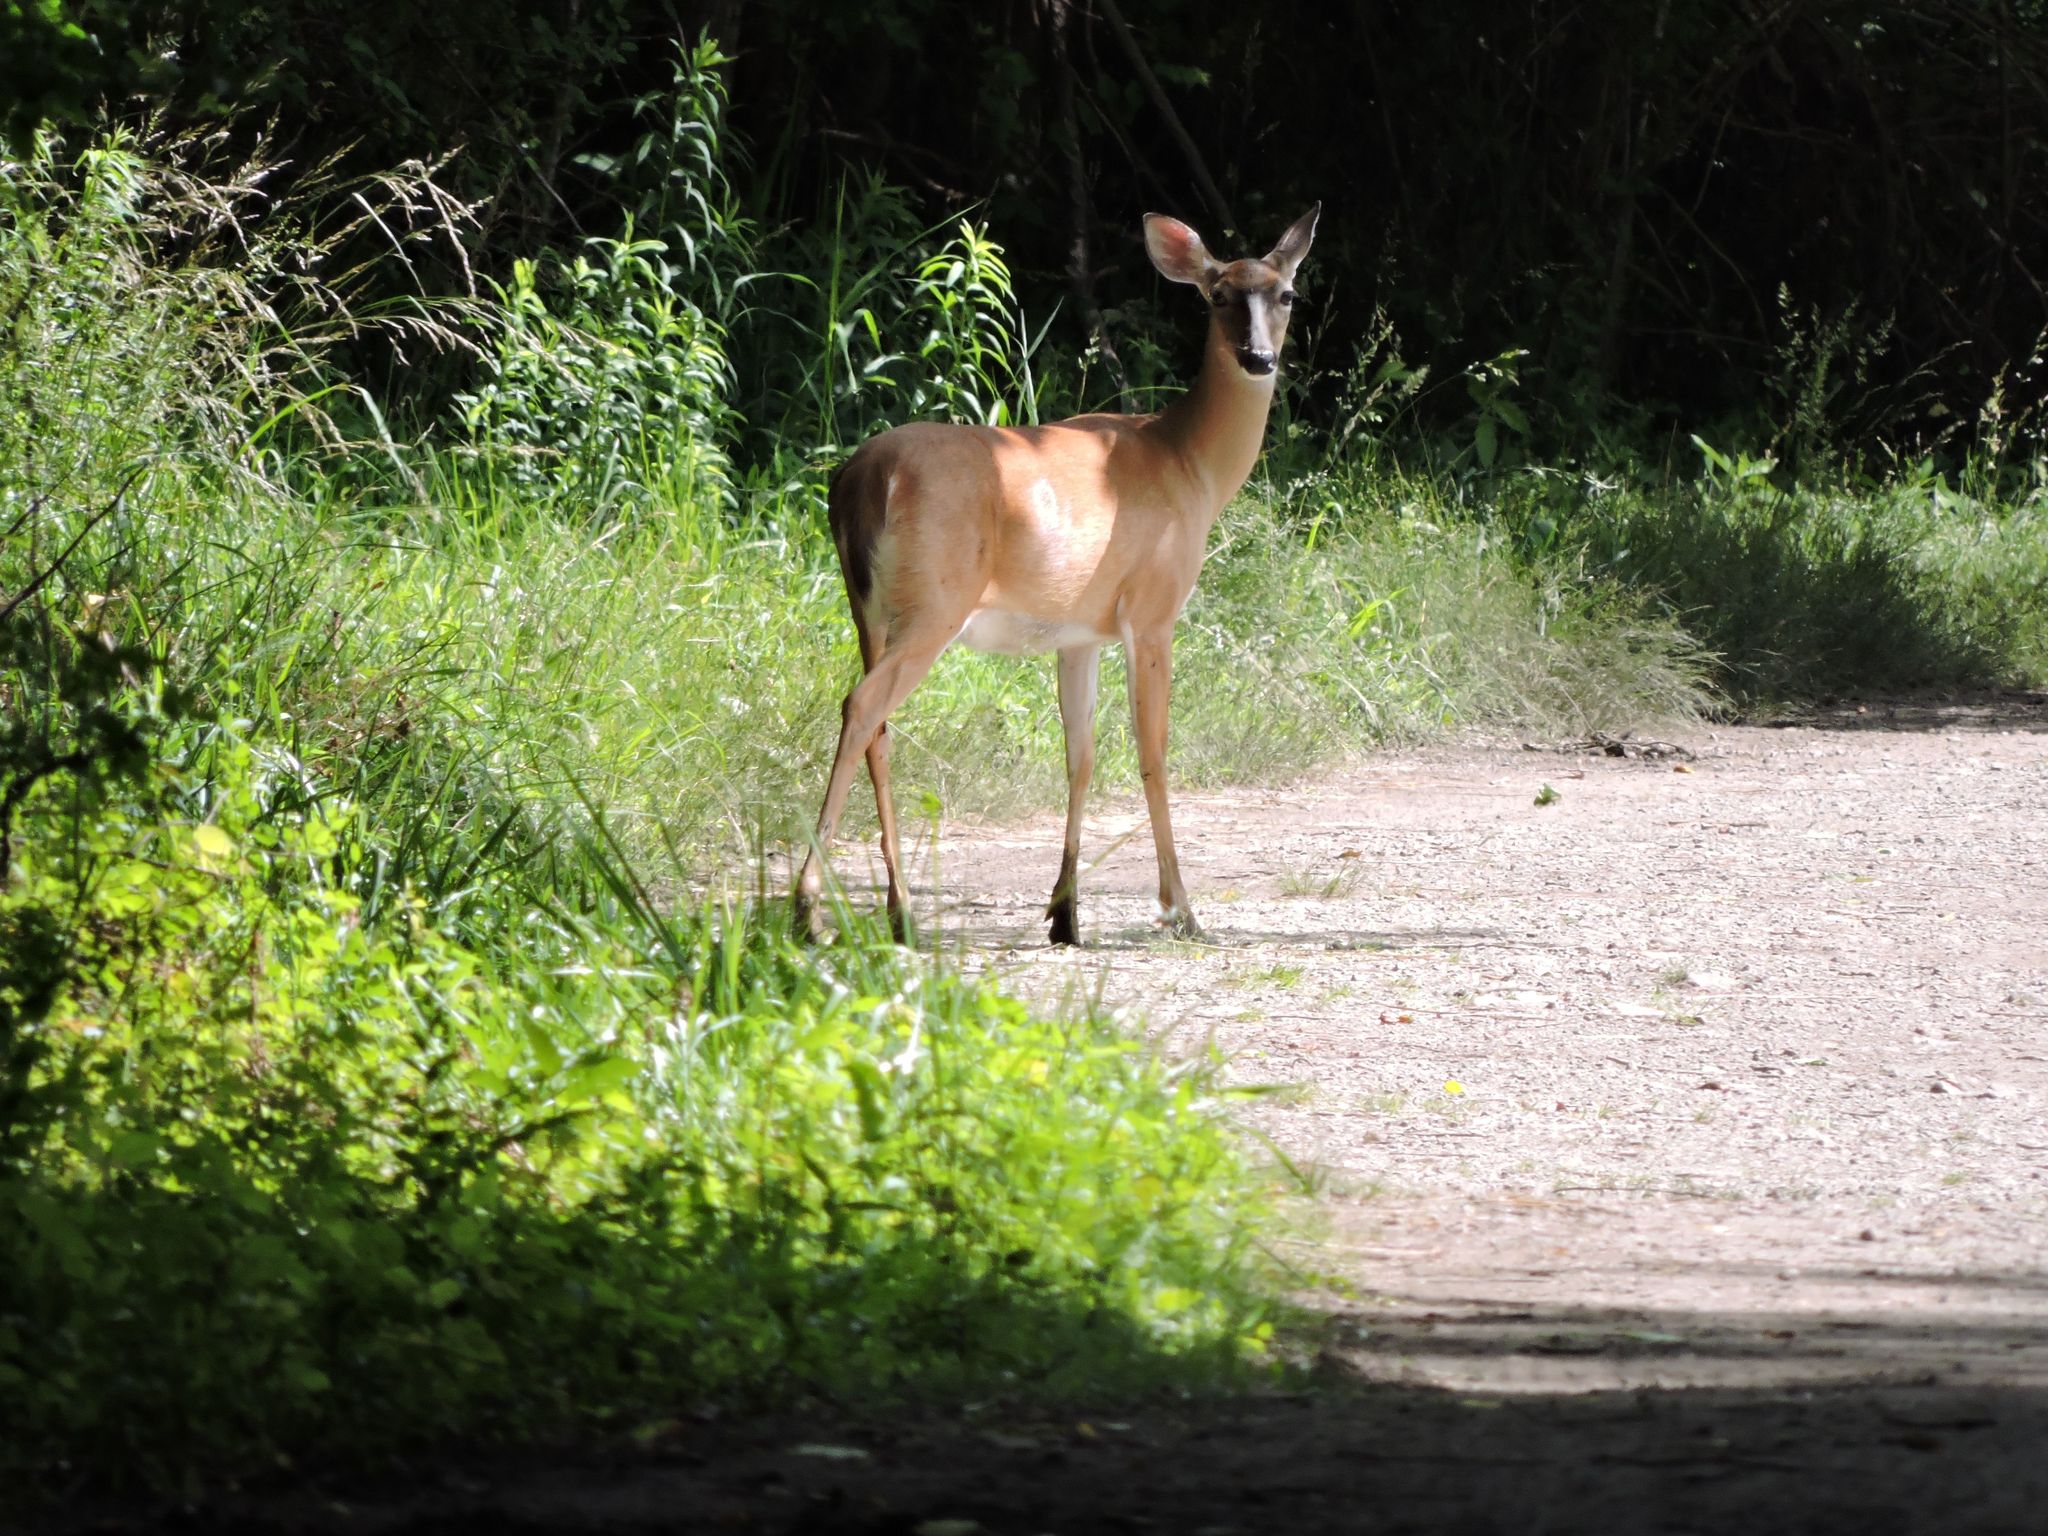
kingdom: Animalia
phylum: Chordata
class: Mammalia
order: Artiodactyla
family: Cervidae
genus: Odocoileus
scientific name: Odocoileus virginianus
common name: White-tailed deer
